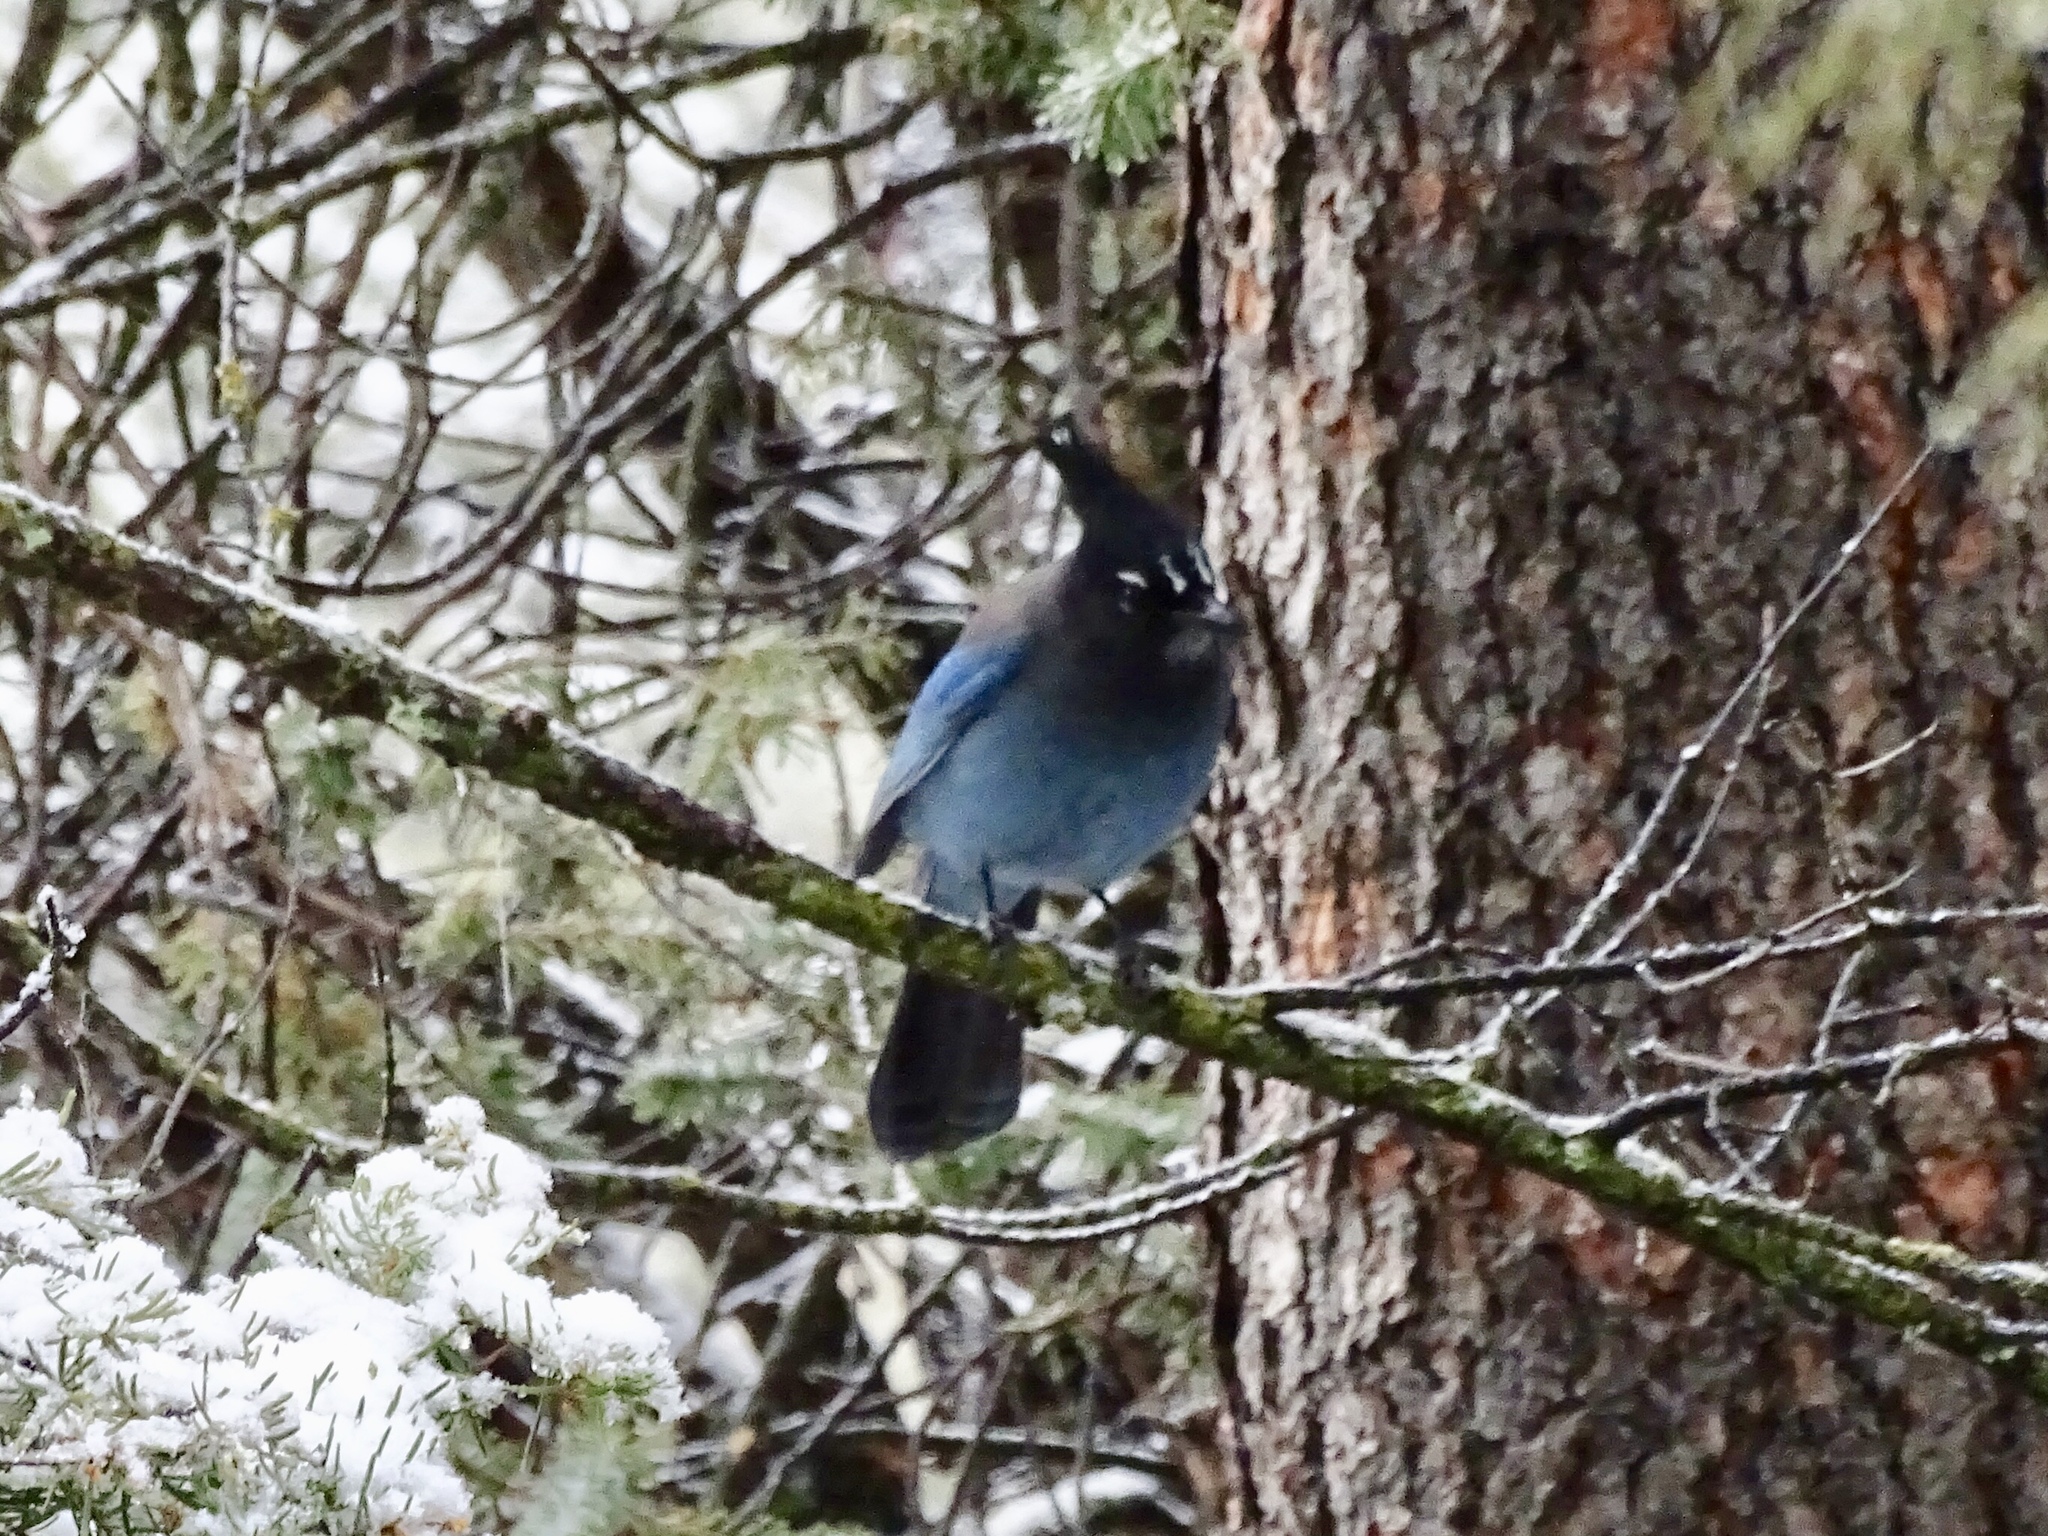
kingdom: Animalia
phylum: Chordata
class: Aves
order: Passeriformes
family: Corvidae
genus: Cyanocitta
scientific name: Cyanocitta stelleri
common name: Steller's jay
